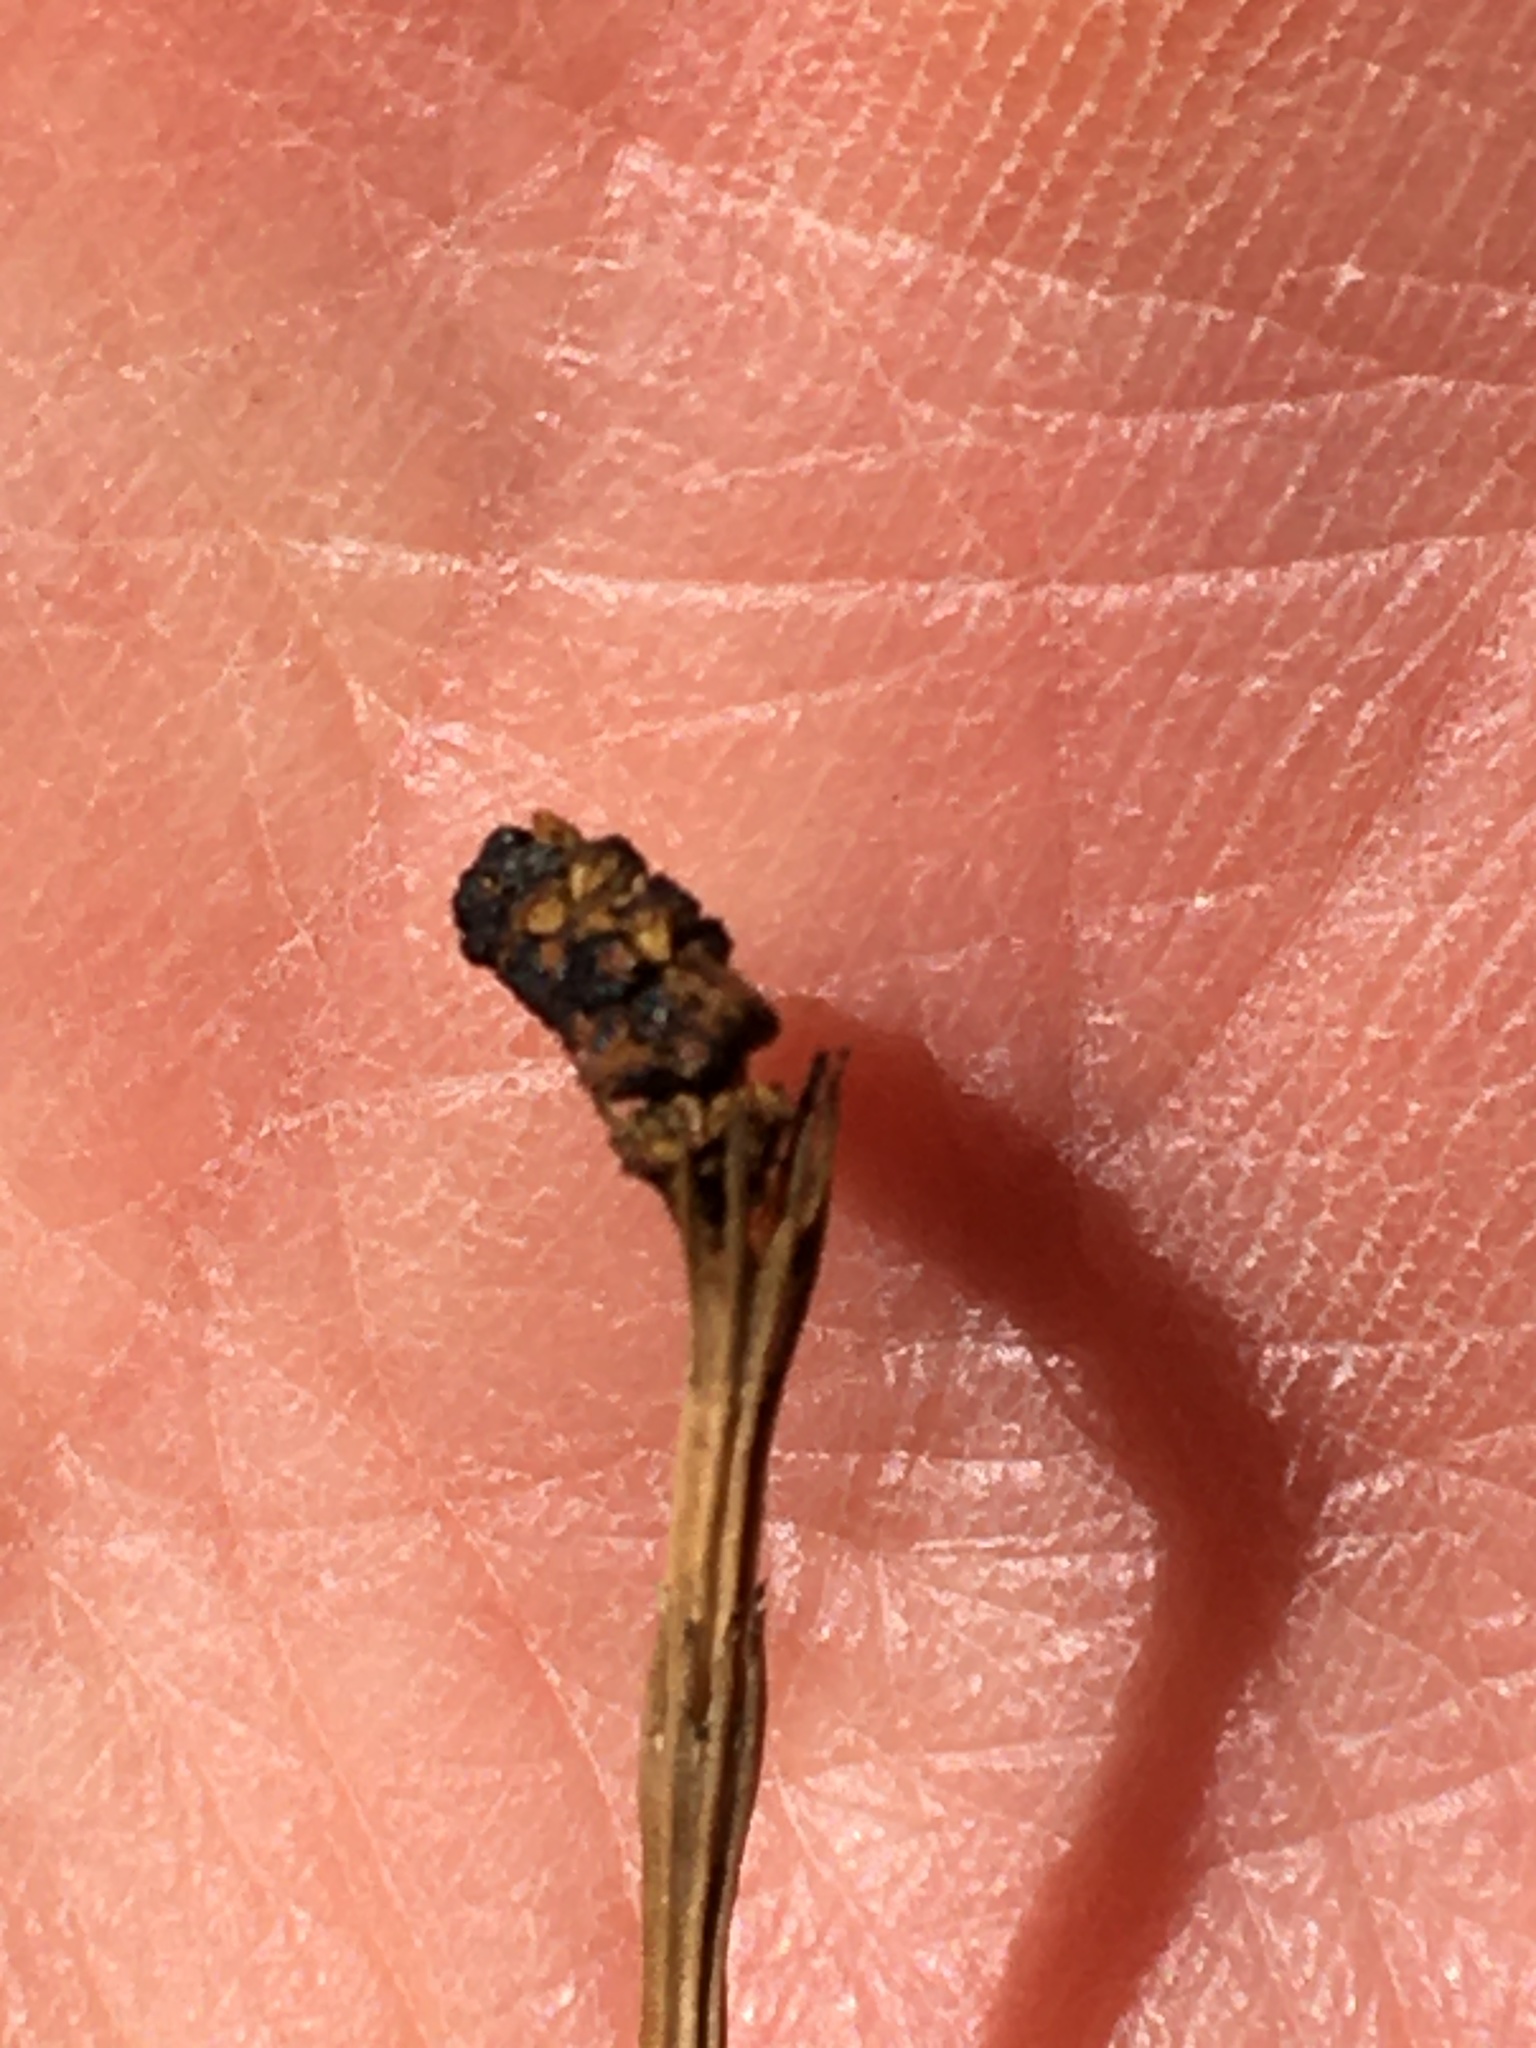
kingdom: Plantae
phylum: Tracheophyta
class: Polypodiopsida
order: Equisetales
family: Equisetaceae
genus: Equisetum
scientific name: Equisetum fluviatile
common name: Water horsetail
